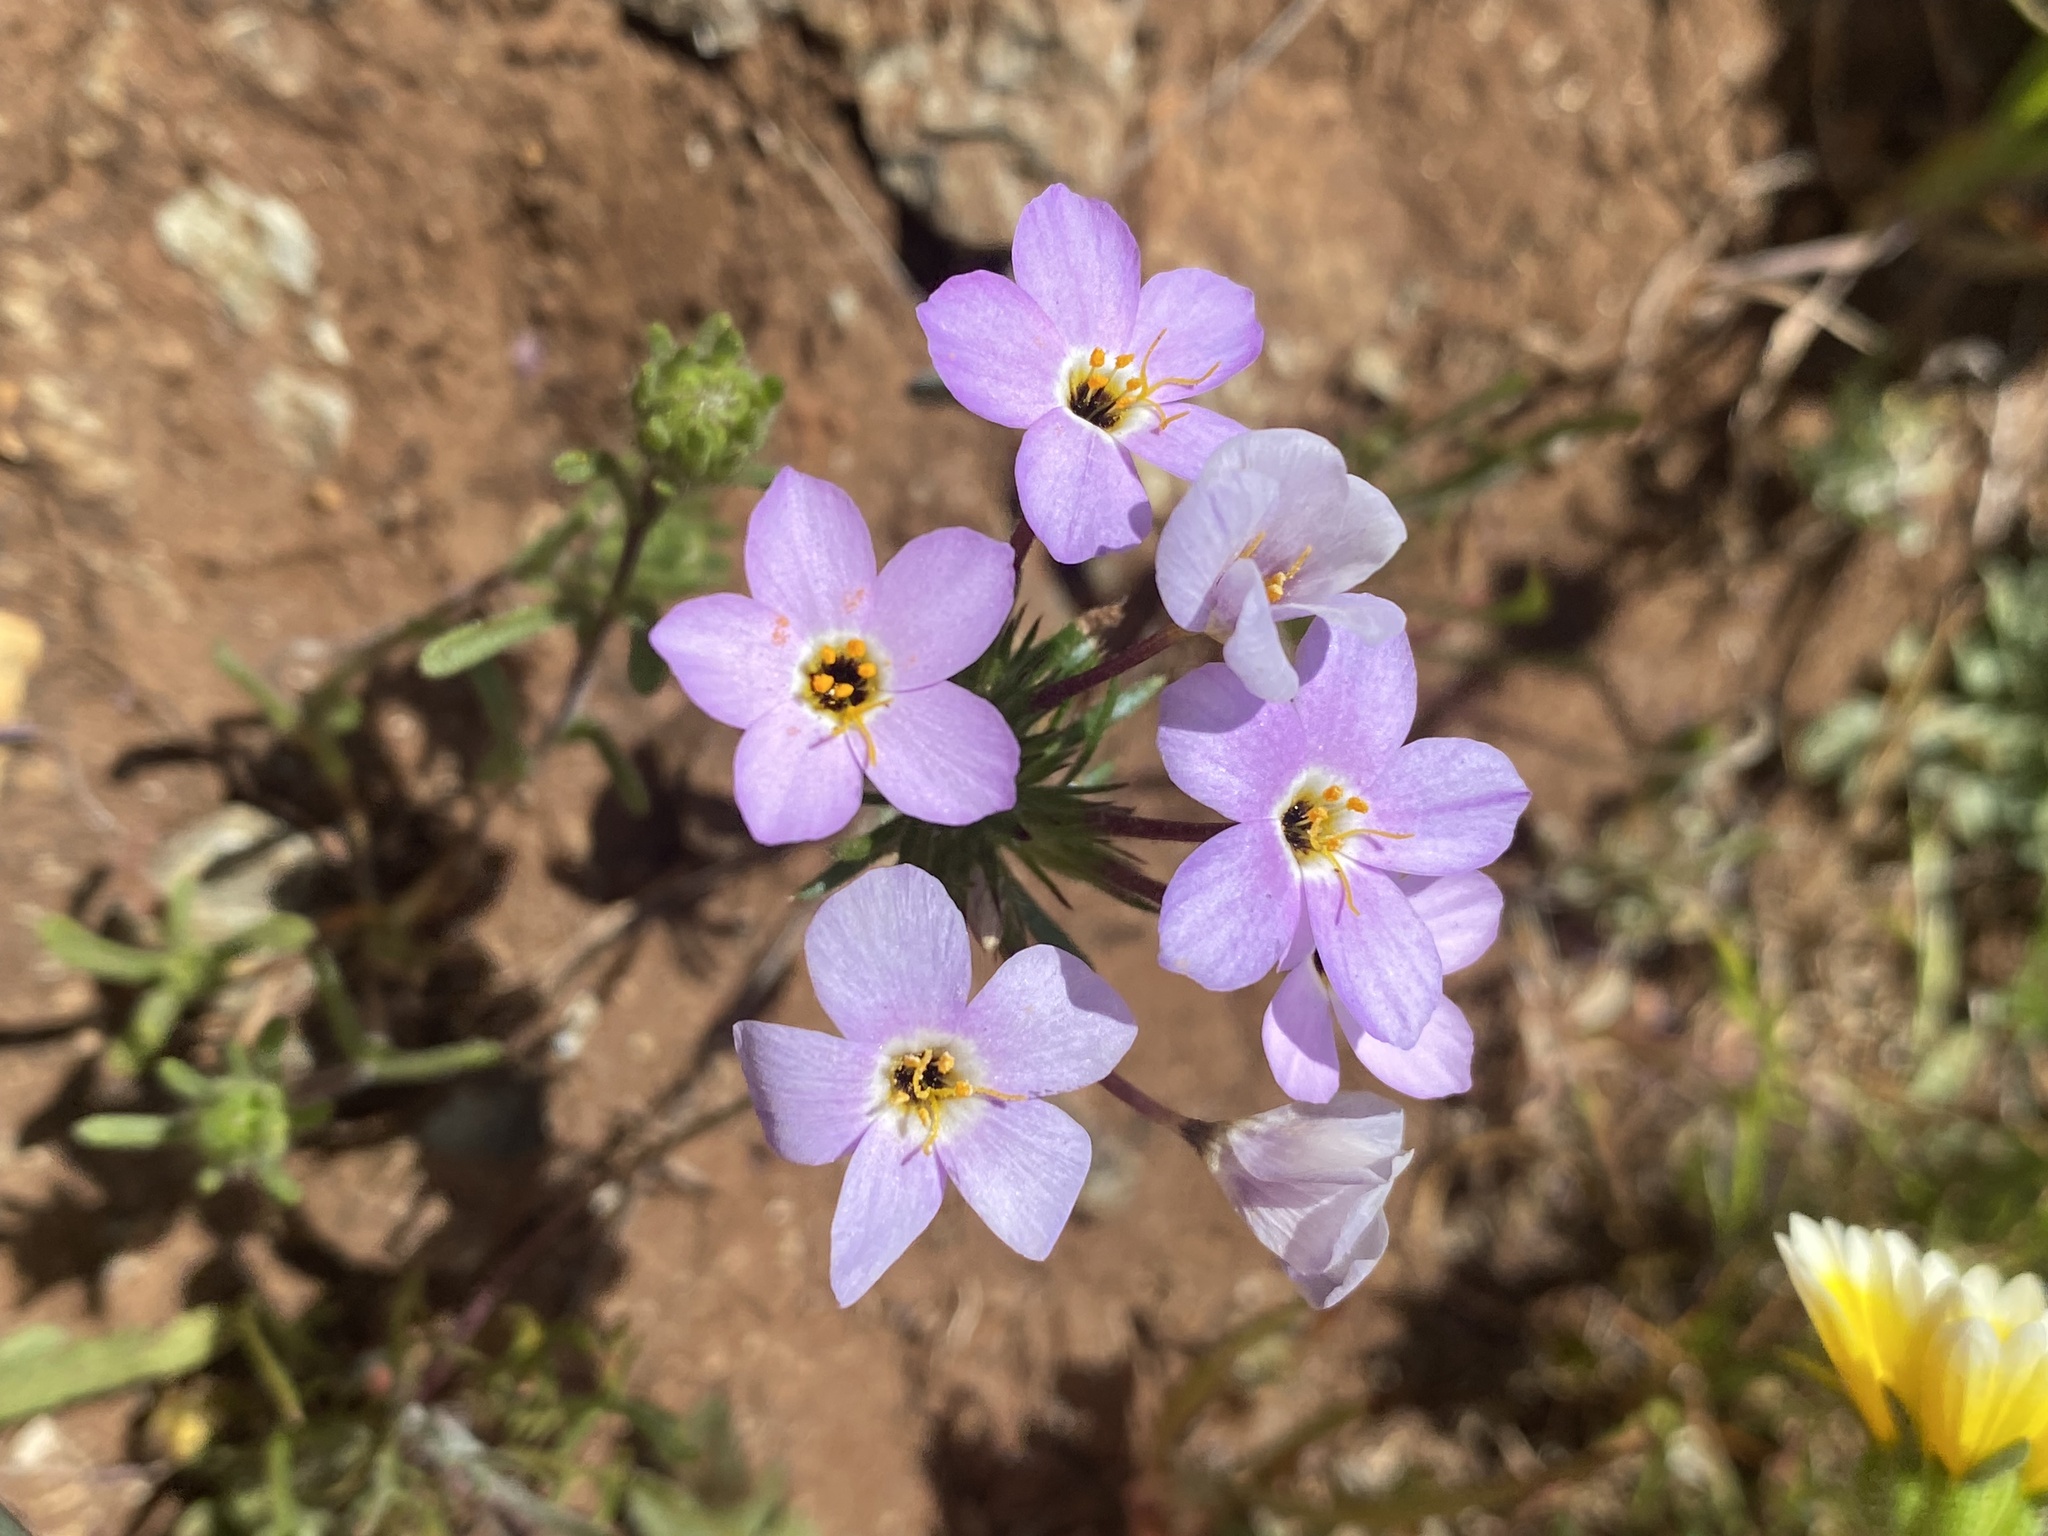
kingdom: Plantae
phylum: Tracheophyta
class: Magnoliopsida
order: Ericales
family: Polemoniaceae
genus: Leptosiphon
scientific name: Leptosiphon androsaceus
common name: False babystars
